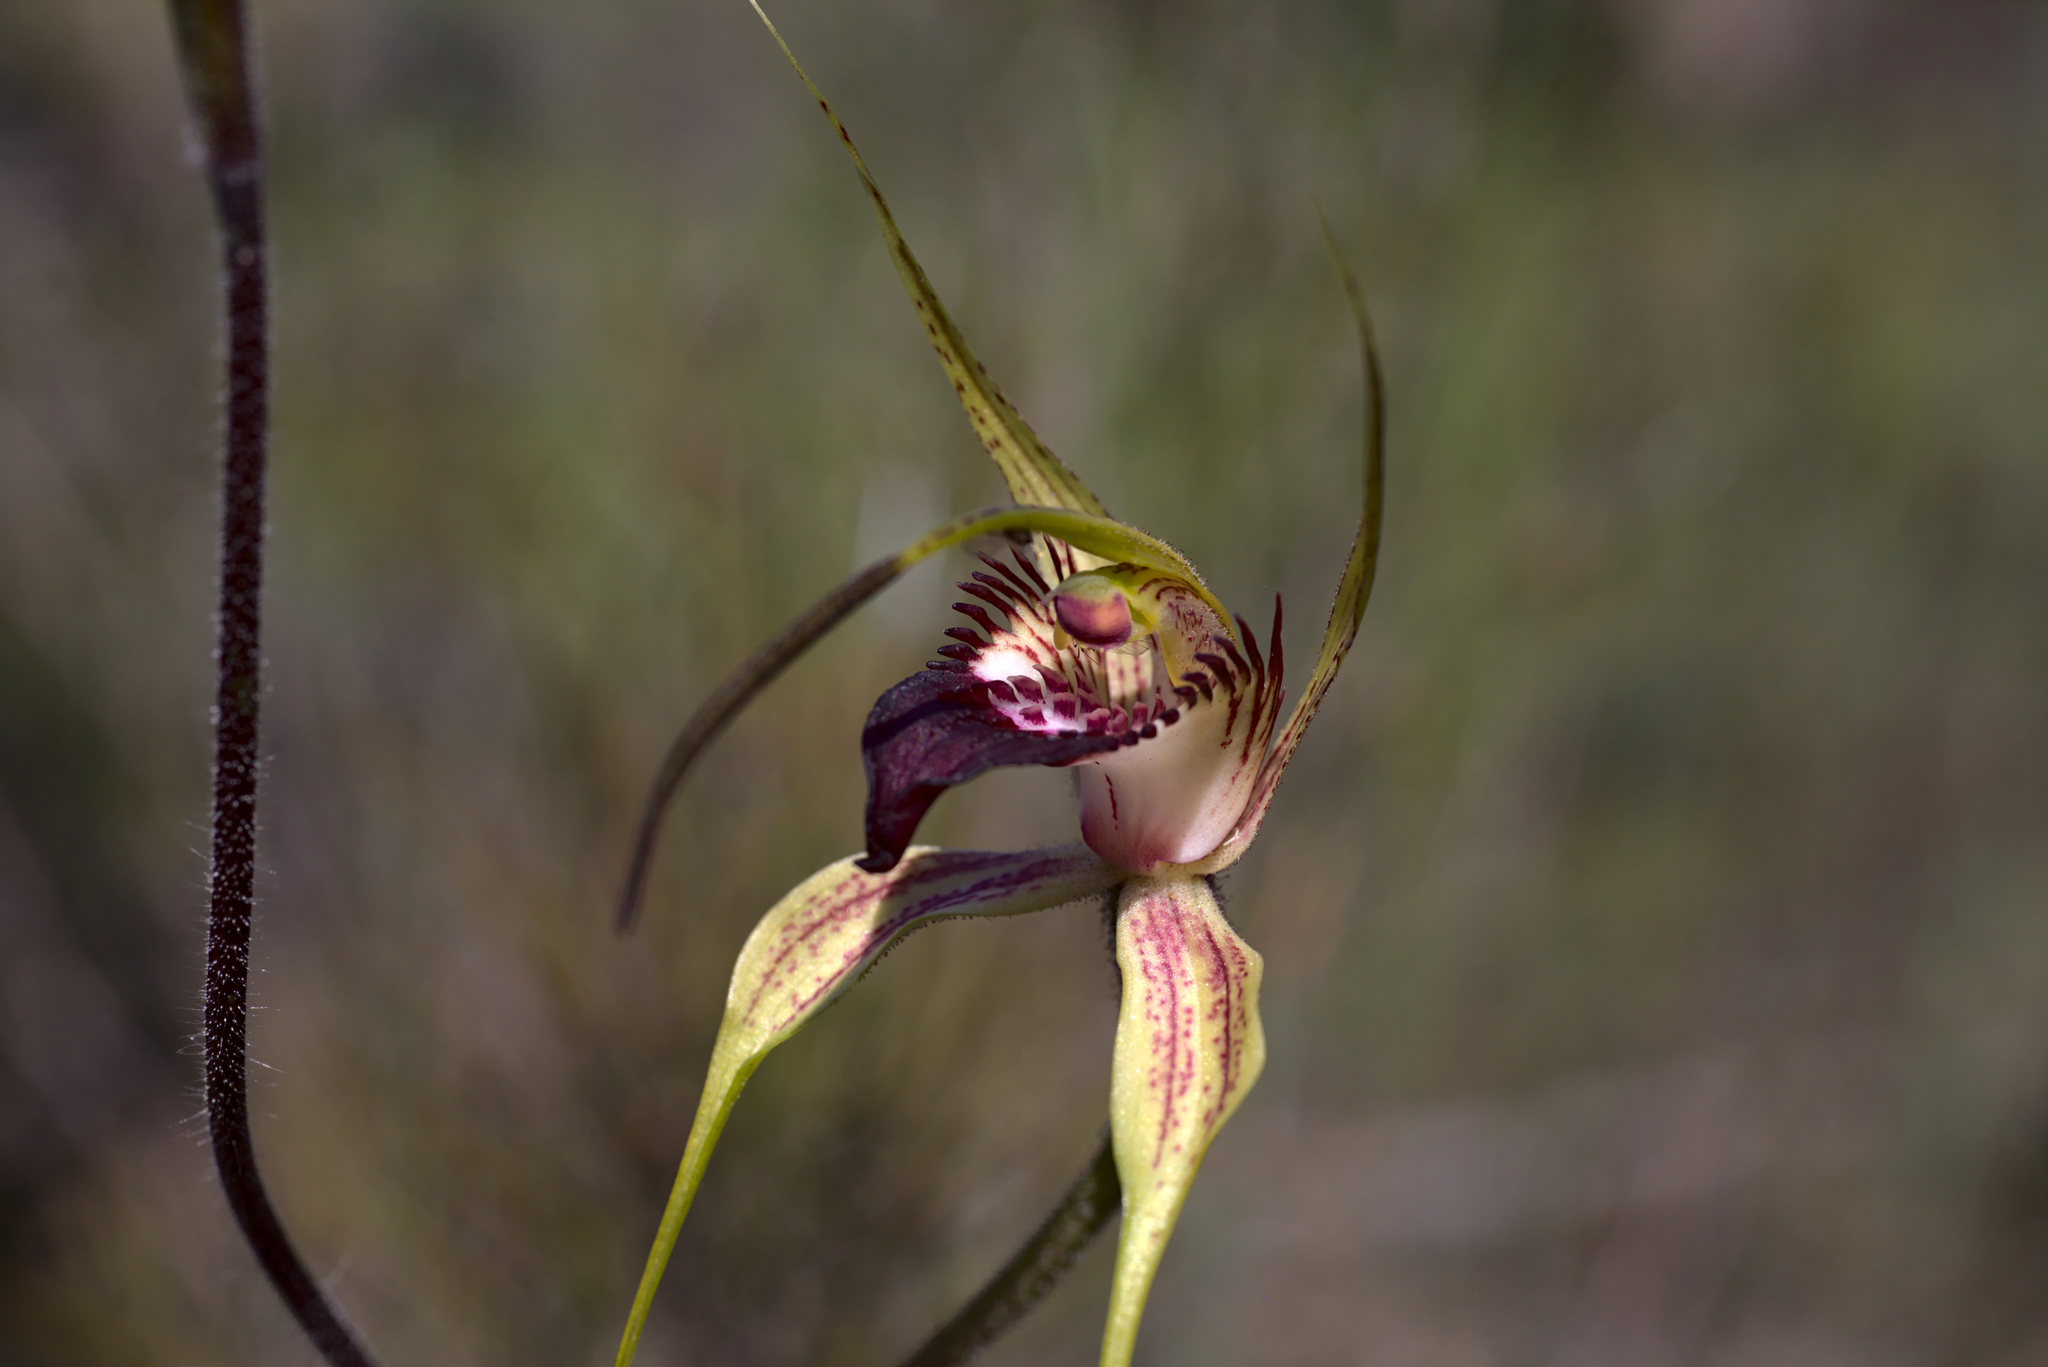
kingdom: Plantae
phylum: Tracheophyta
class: Liliopsida
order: Asparagales
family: Orchidaceae
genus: Caladenia
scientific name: Caladenia paludosa
